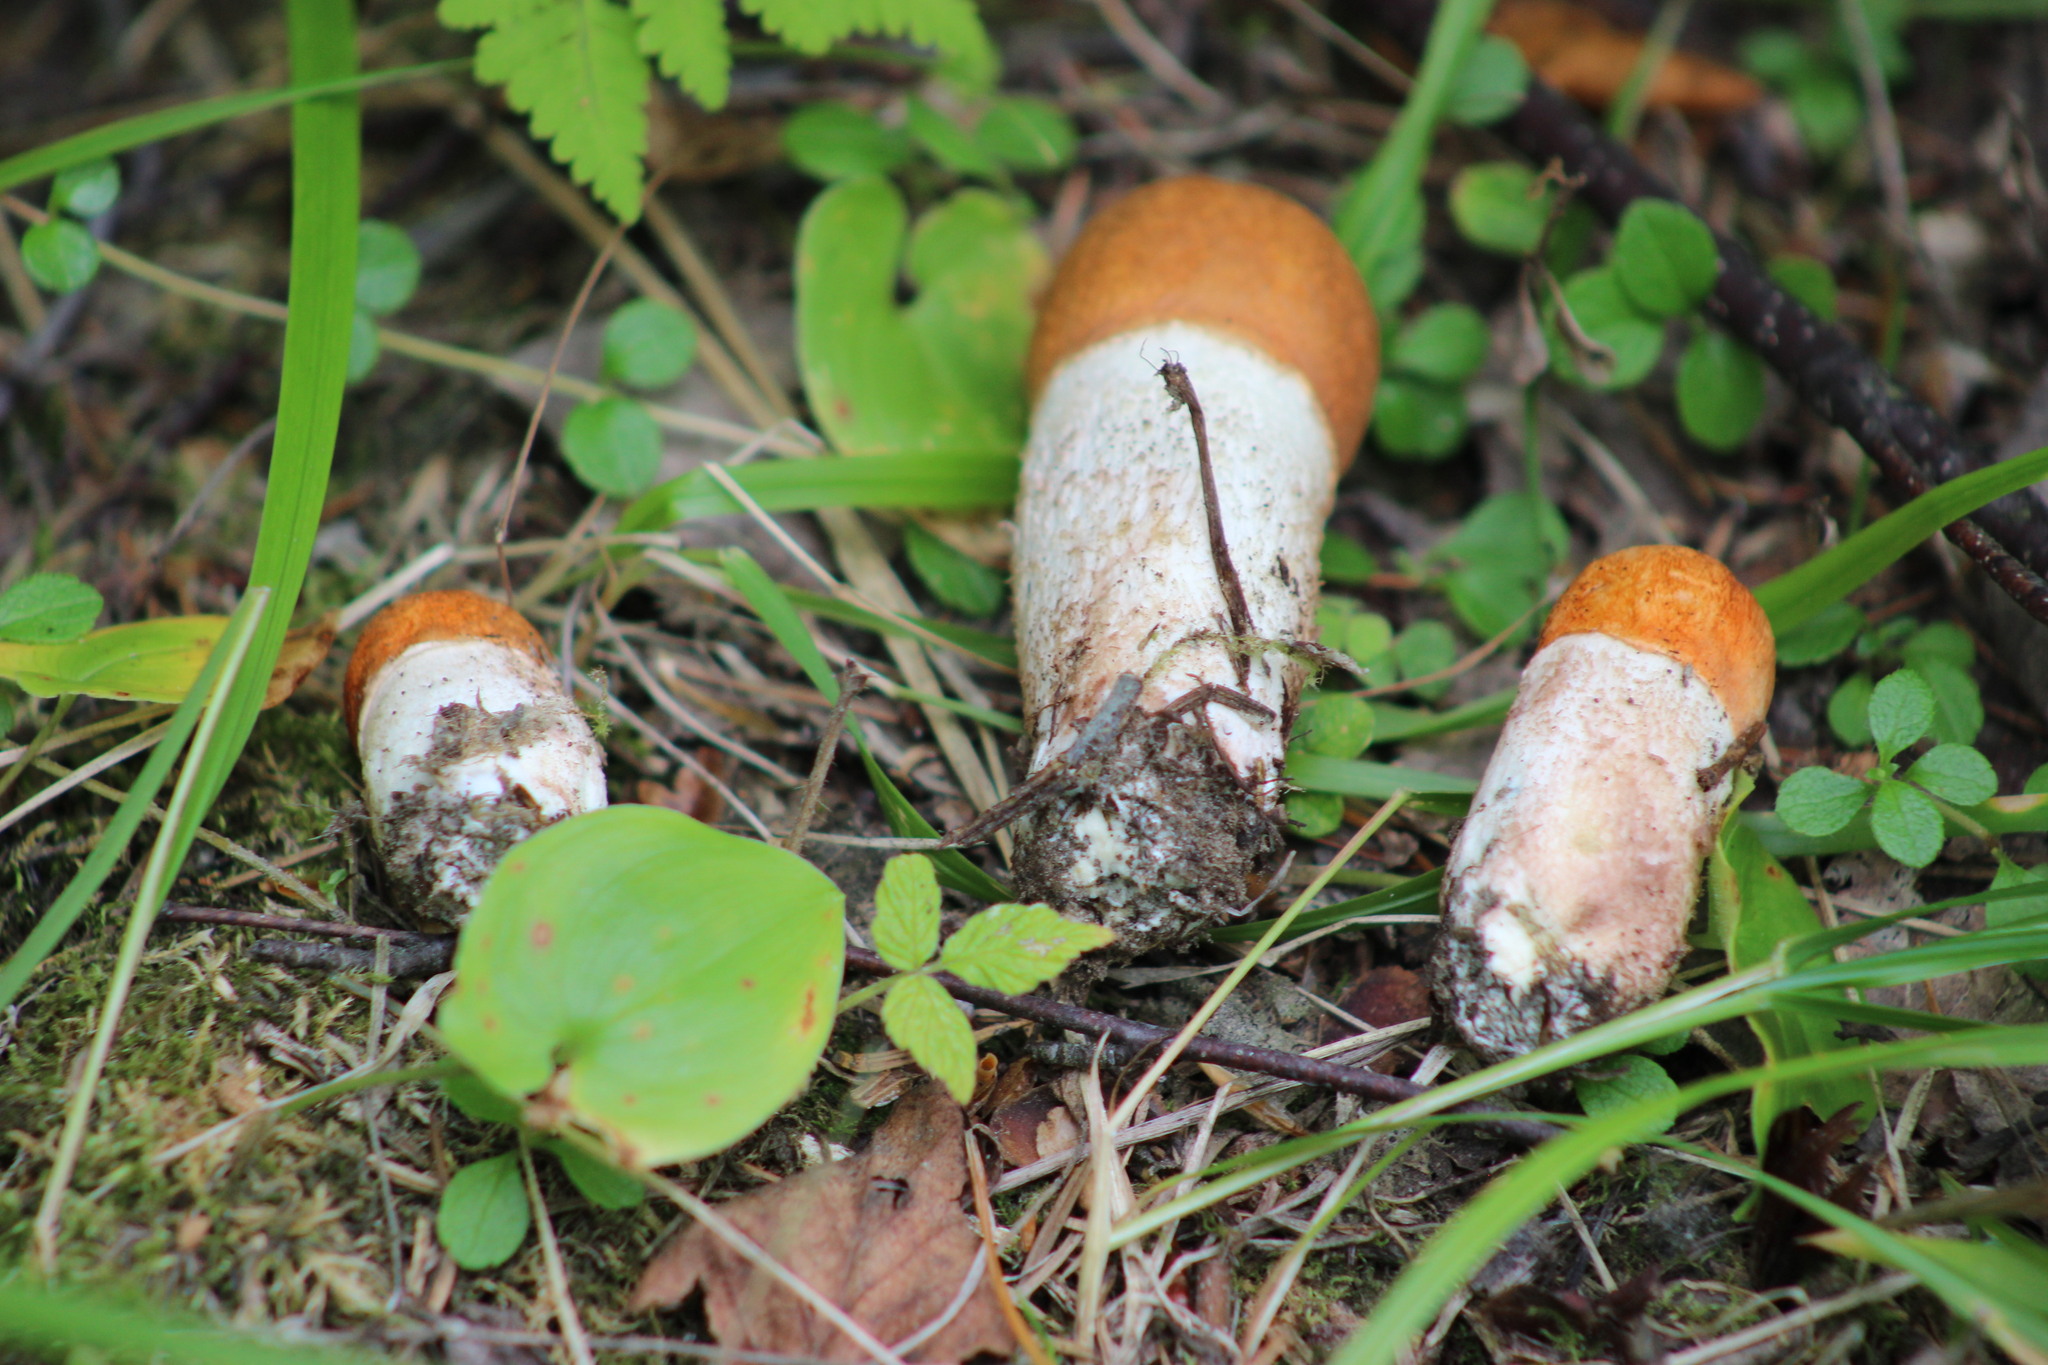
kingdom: Fungi
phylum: Basidiomycota
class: Agaricomycetes
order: Boletales
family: Boletaceae
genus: Leccinum
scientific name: Leccinum vulpinum
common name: Foxy bolete
